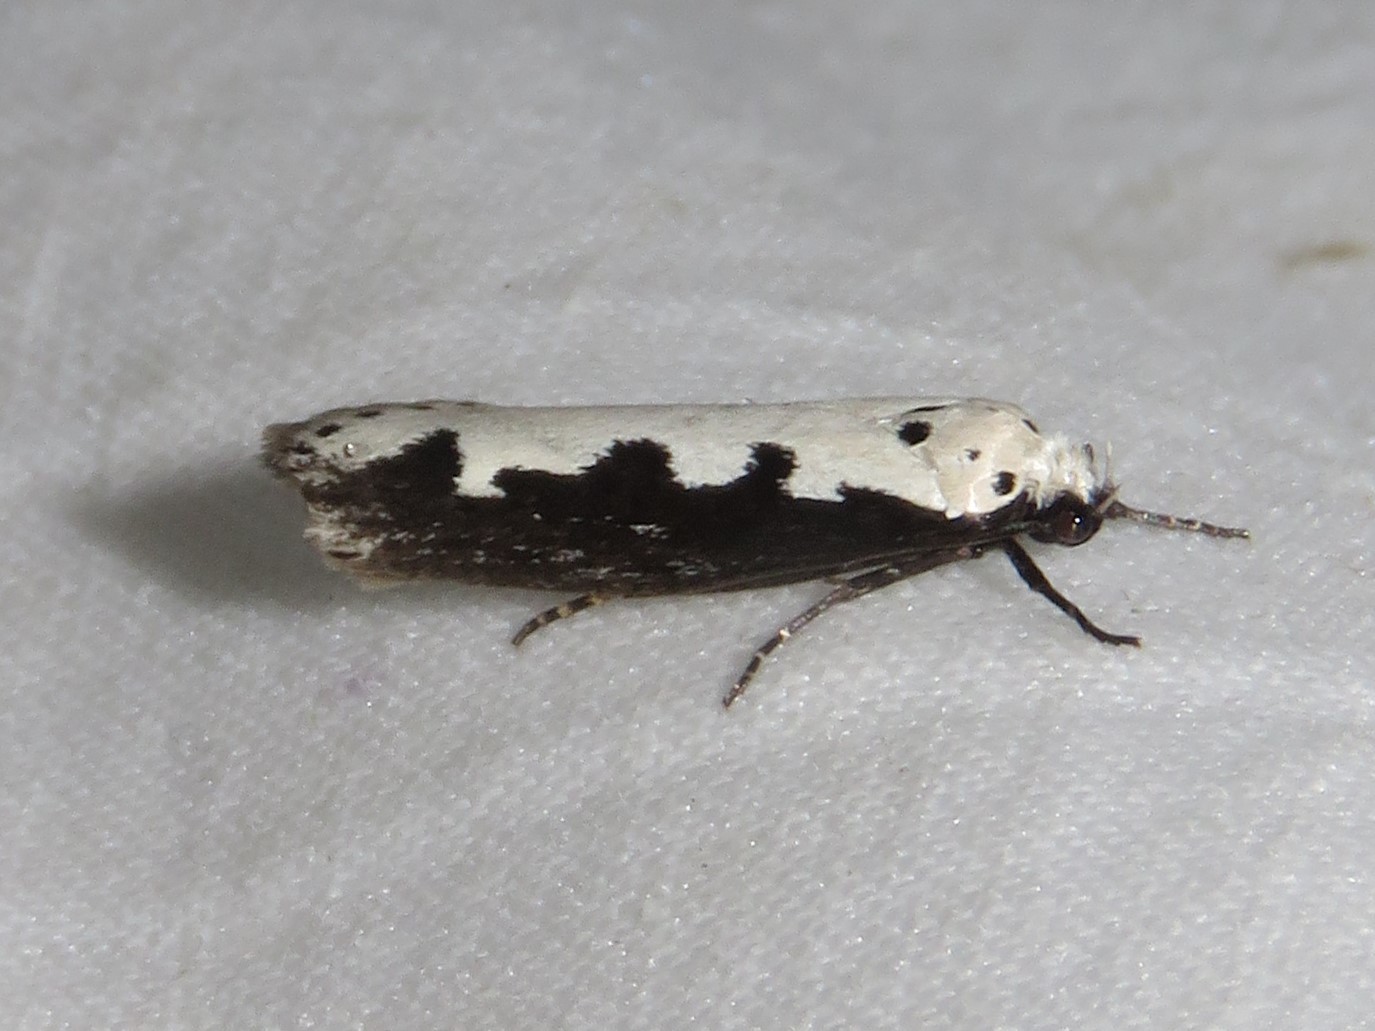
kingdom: Animalia
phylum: Arthropoda
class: Insecta
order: Lepidoptera
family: Ethmiidae
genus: Ethmia
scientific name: Ethmia bipunctella
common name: Bordered ermel
